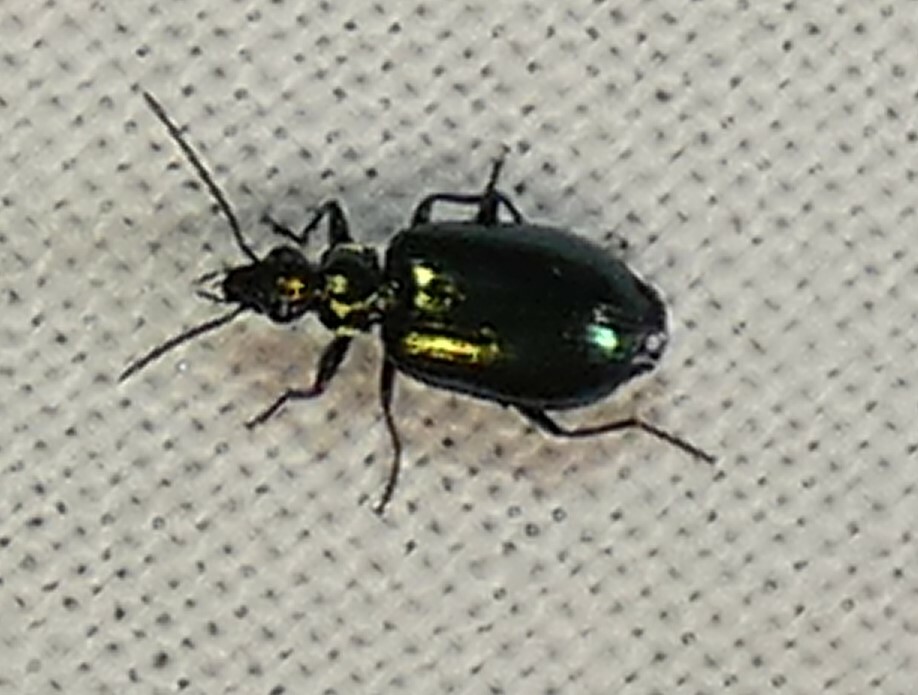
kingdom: Animalia
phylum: Arthropoda
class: Insecta
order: Coleoptera
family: Carabidae
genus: Lebia
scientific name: Lebia viridis
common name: Flower lebia beetle
